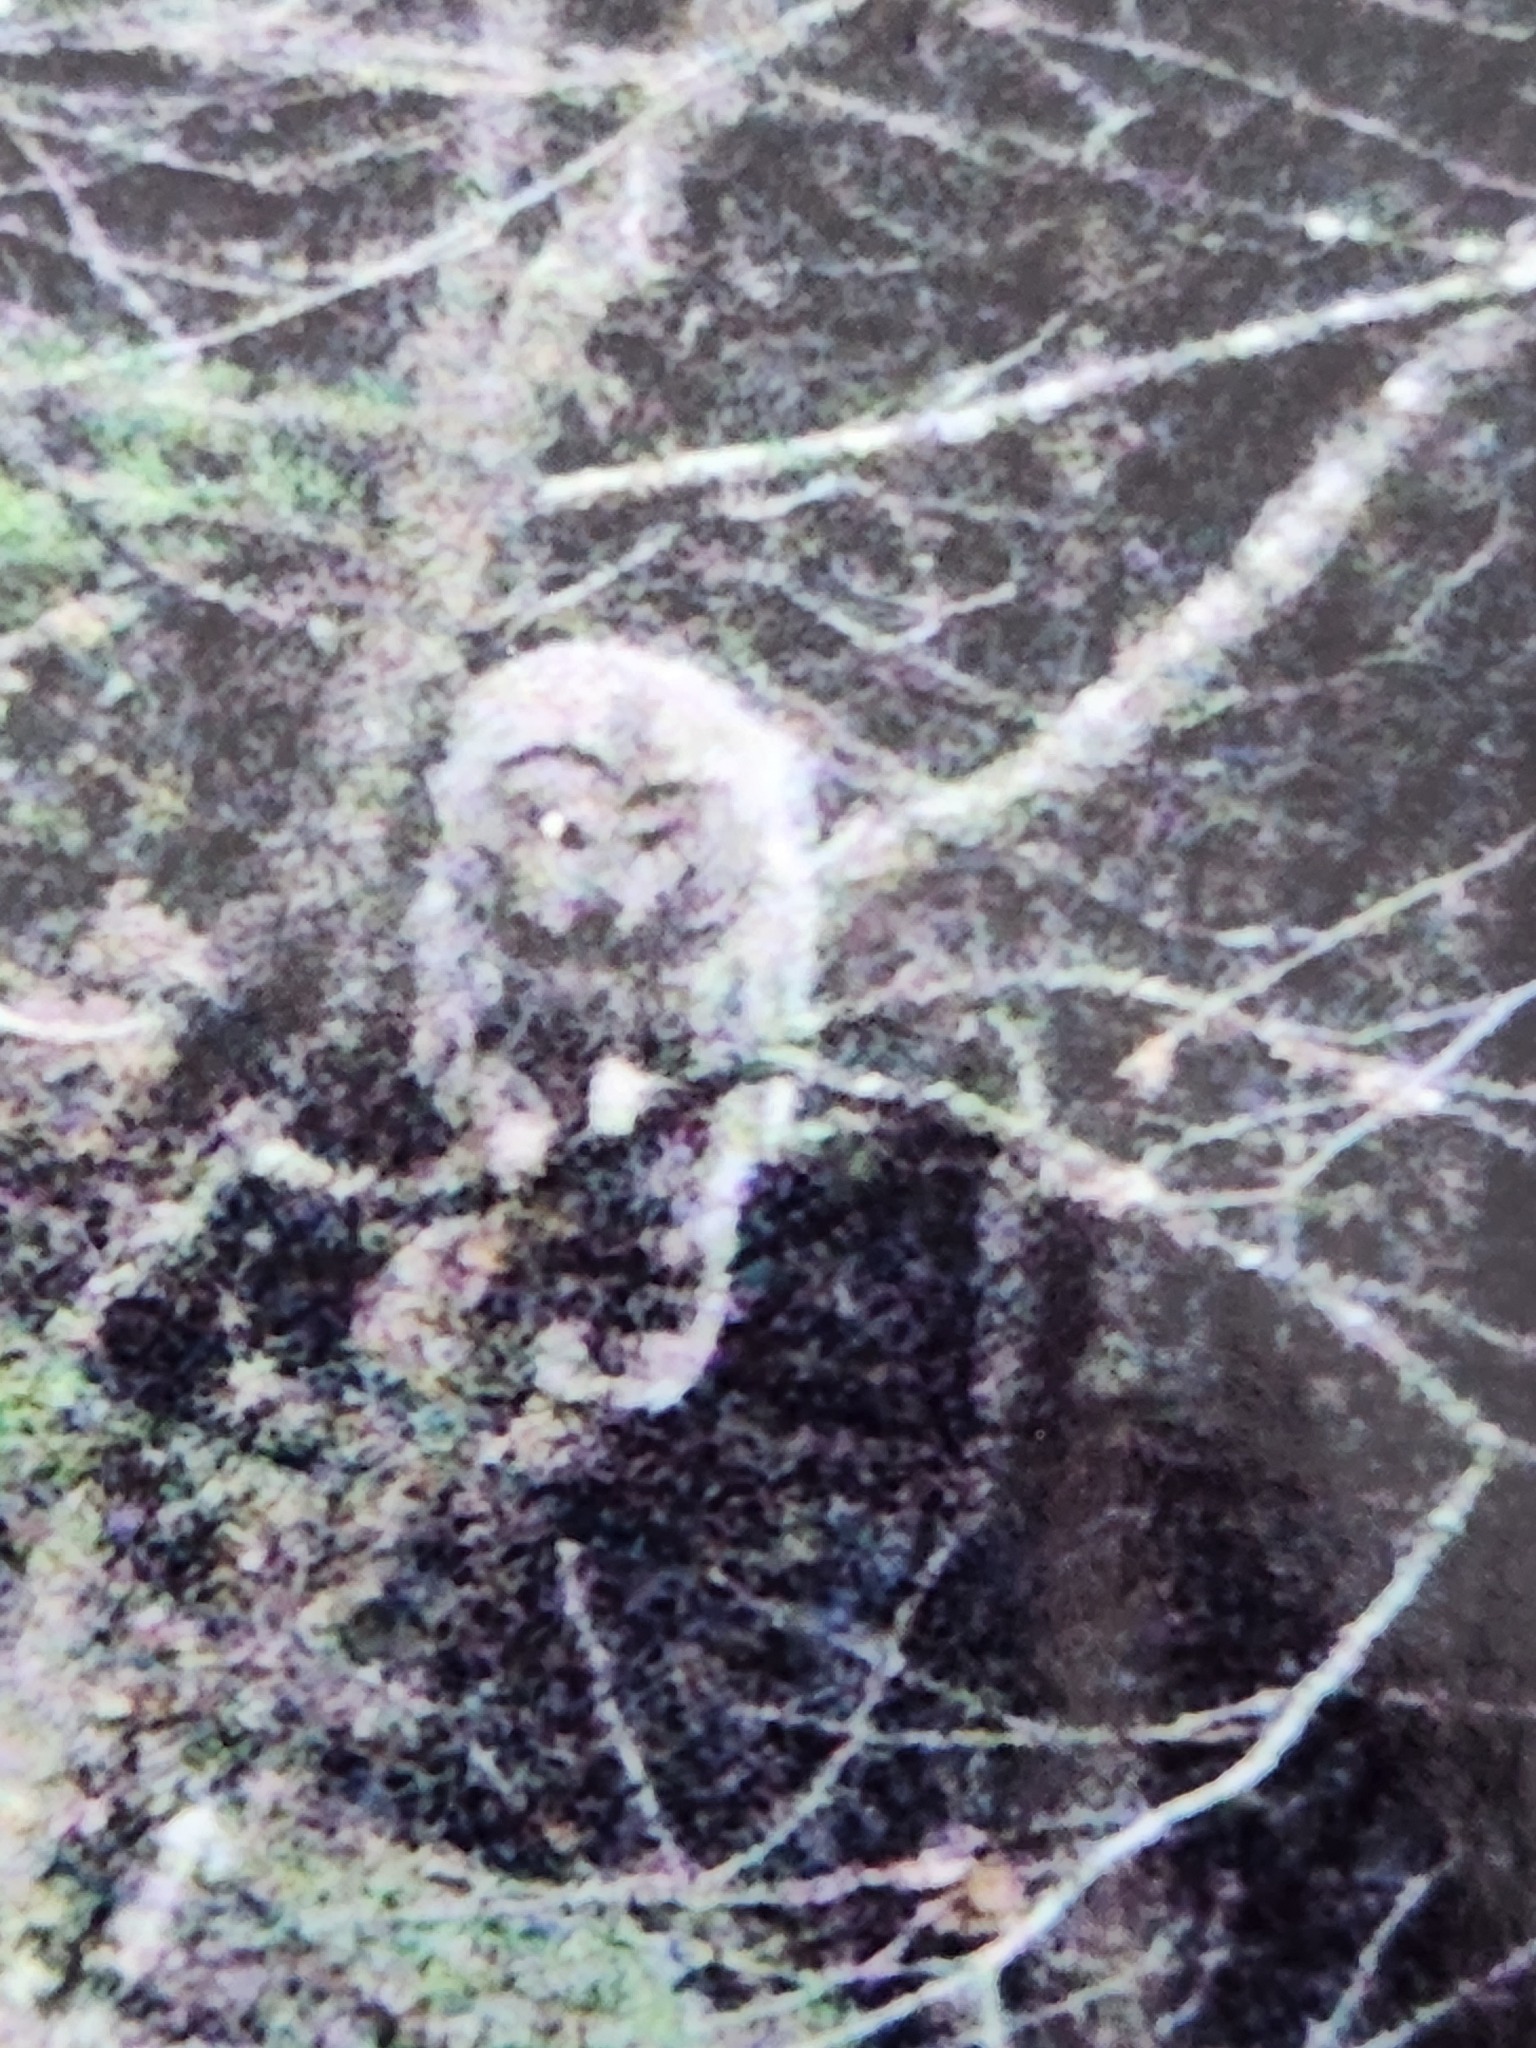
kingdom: Animalia
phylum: Chordata
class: Aves
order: Strigiformes
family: Strigidae
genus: Strix
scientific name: Strix nebulosa
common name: Great grey owl
